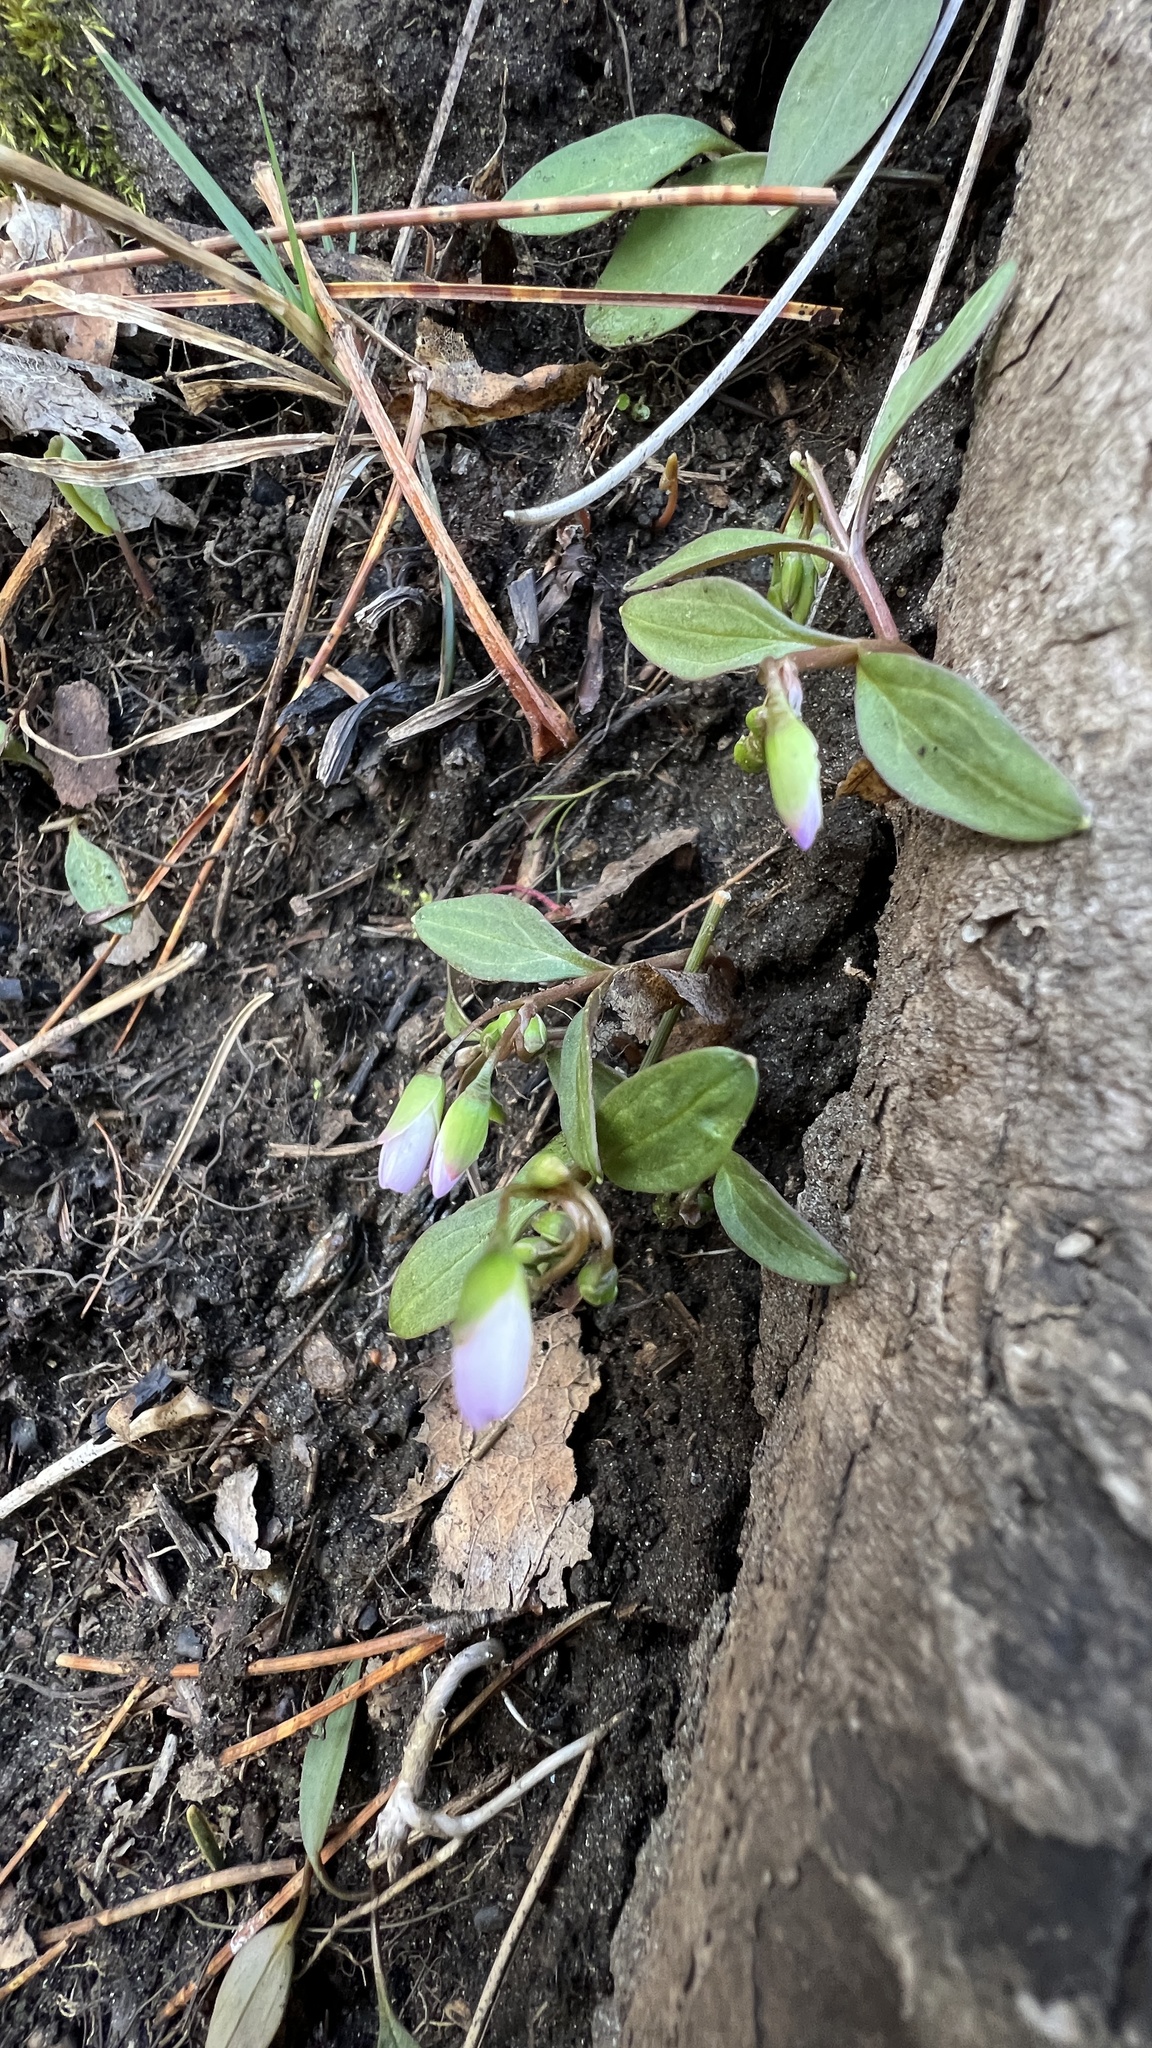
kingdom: Plantae
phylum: Tracheophyta
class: Magnoliopsida
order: Caryophyllales
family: Montiaceae
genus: Claytonia
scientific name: Claytonia caroliniana
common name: Carolina spring beauty
